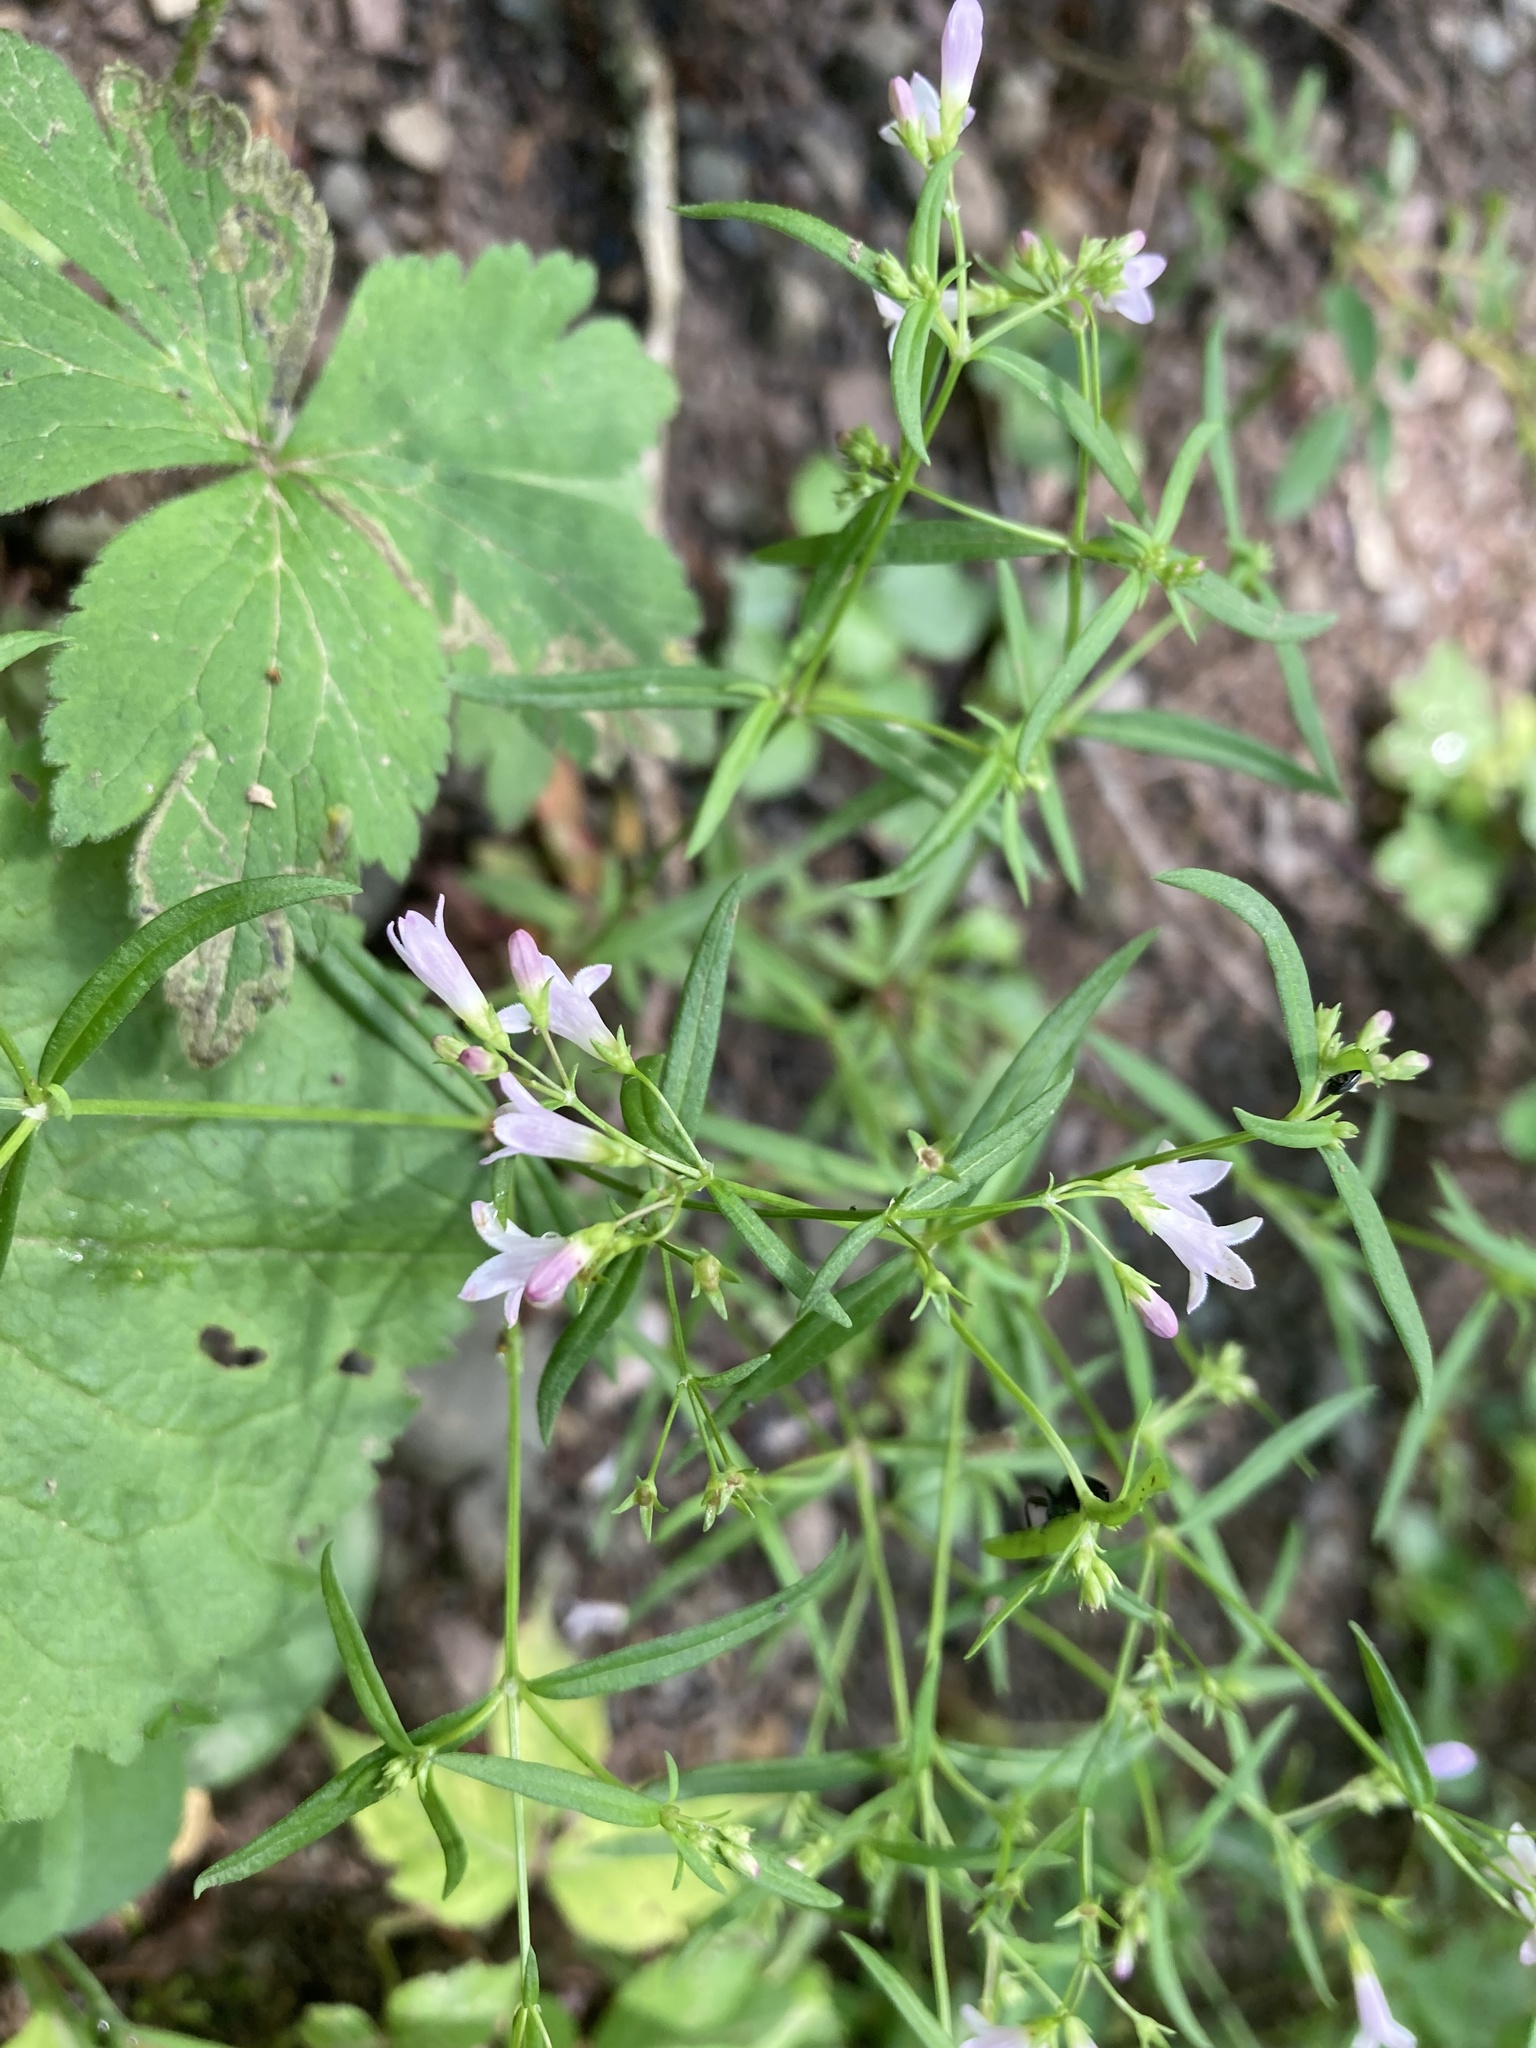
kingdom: Plantae
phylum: Tracheophyta
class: Magnoliopsida
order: Gentianales
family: Rubiaceae
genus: Houstonia
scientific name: Houstonia longifolia
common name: Long-leaved bluets
